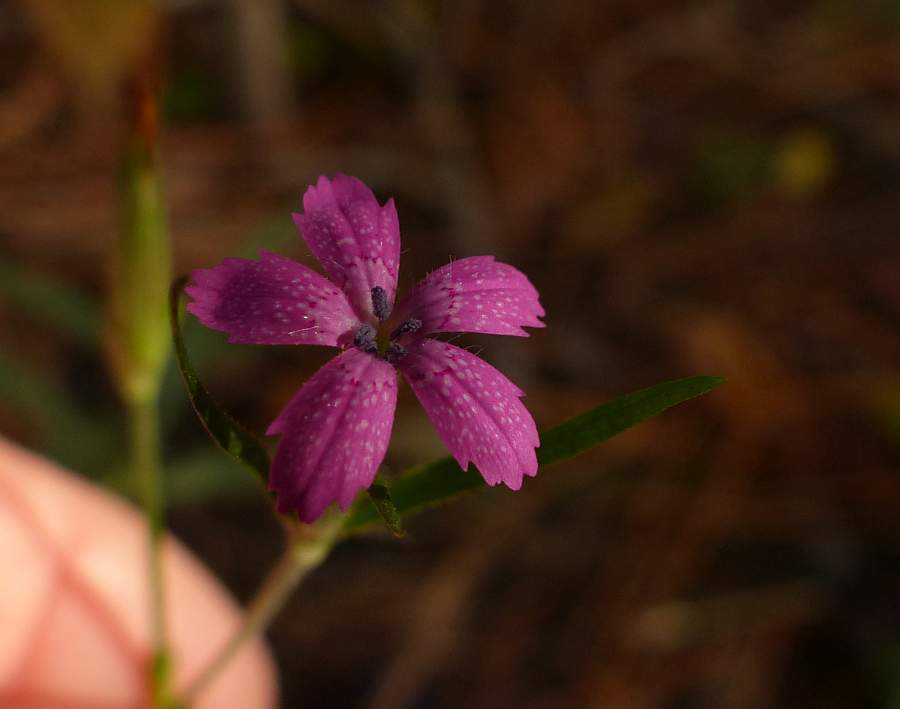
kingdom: Plantae
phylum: Tracheophyta
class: Magnoliopsida
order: Caryophyllales
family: Caryophyllaceae
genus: Dianthus
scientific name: Dianthus armeria
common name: Deptford pink
